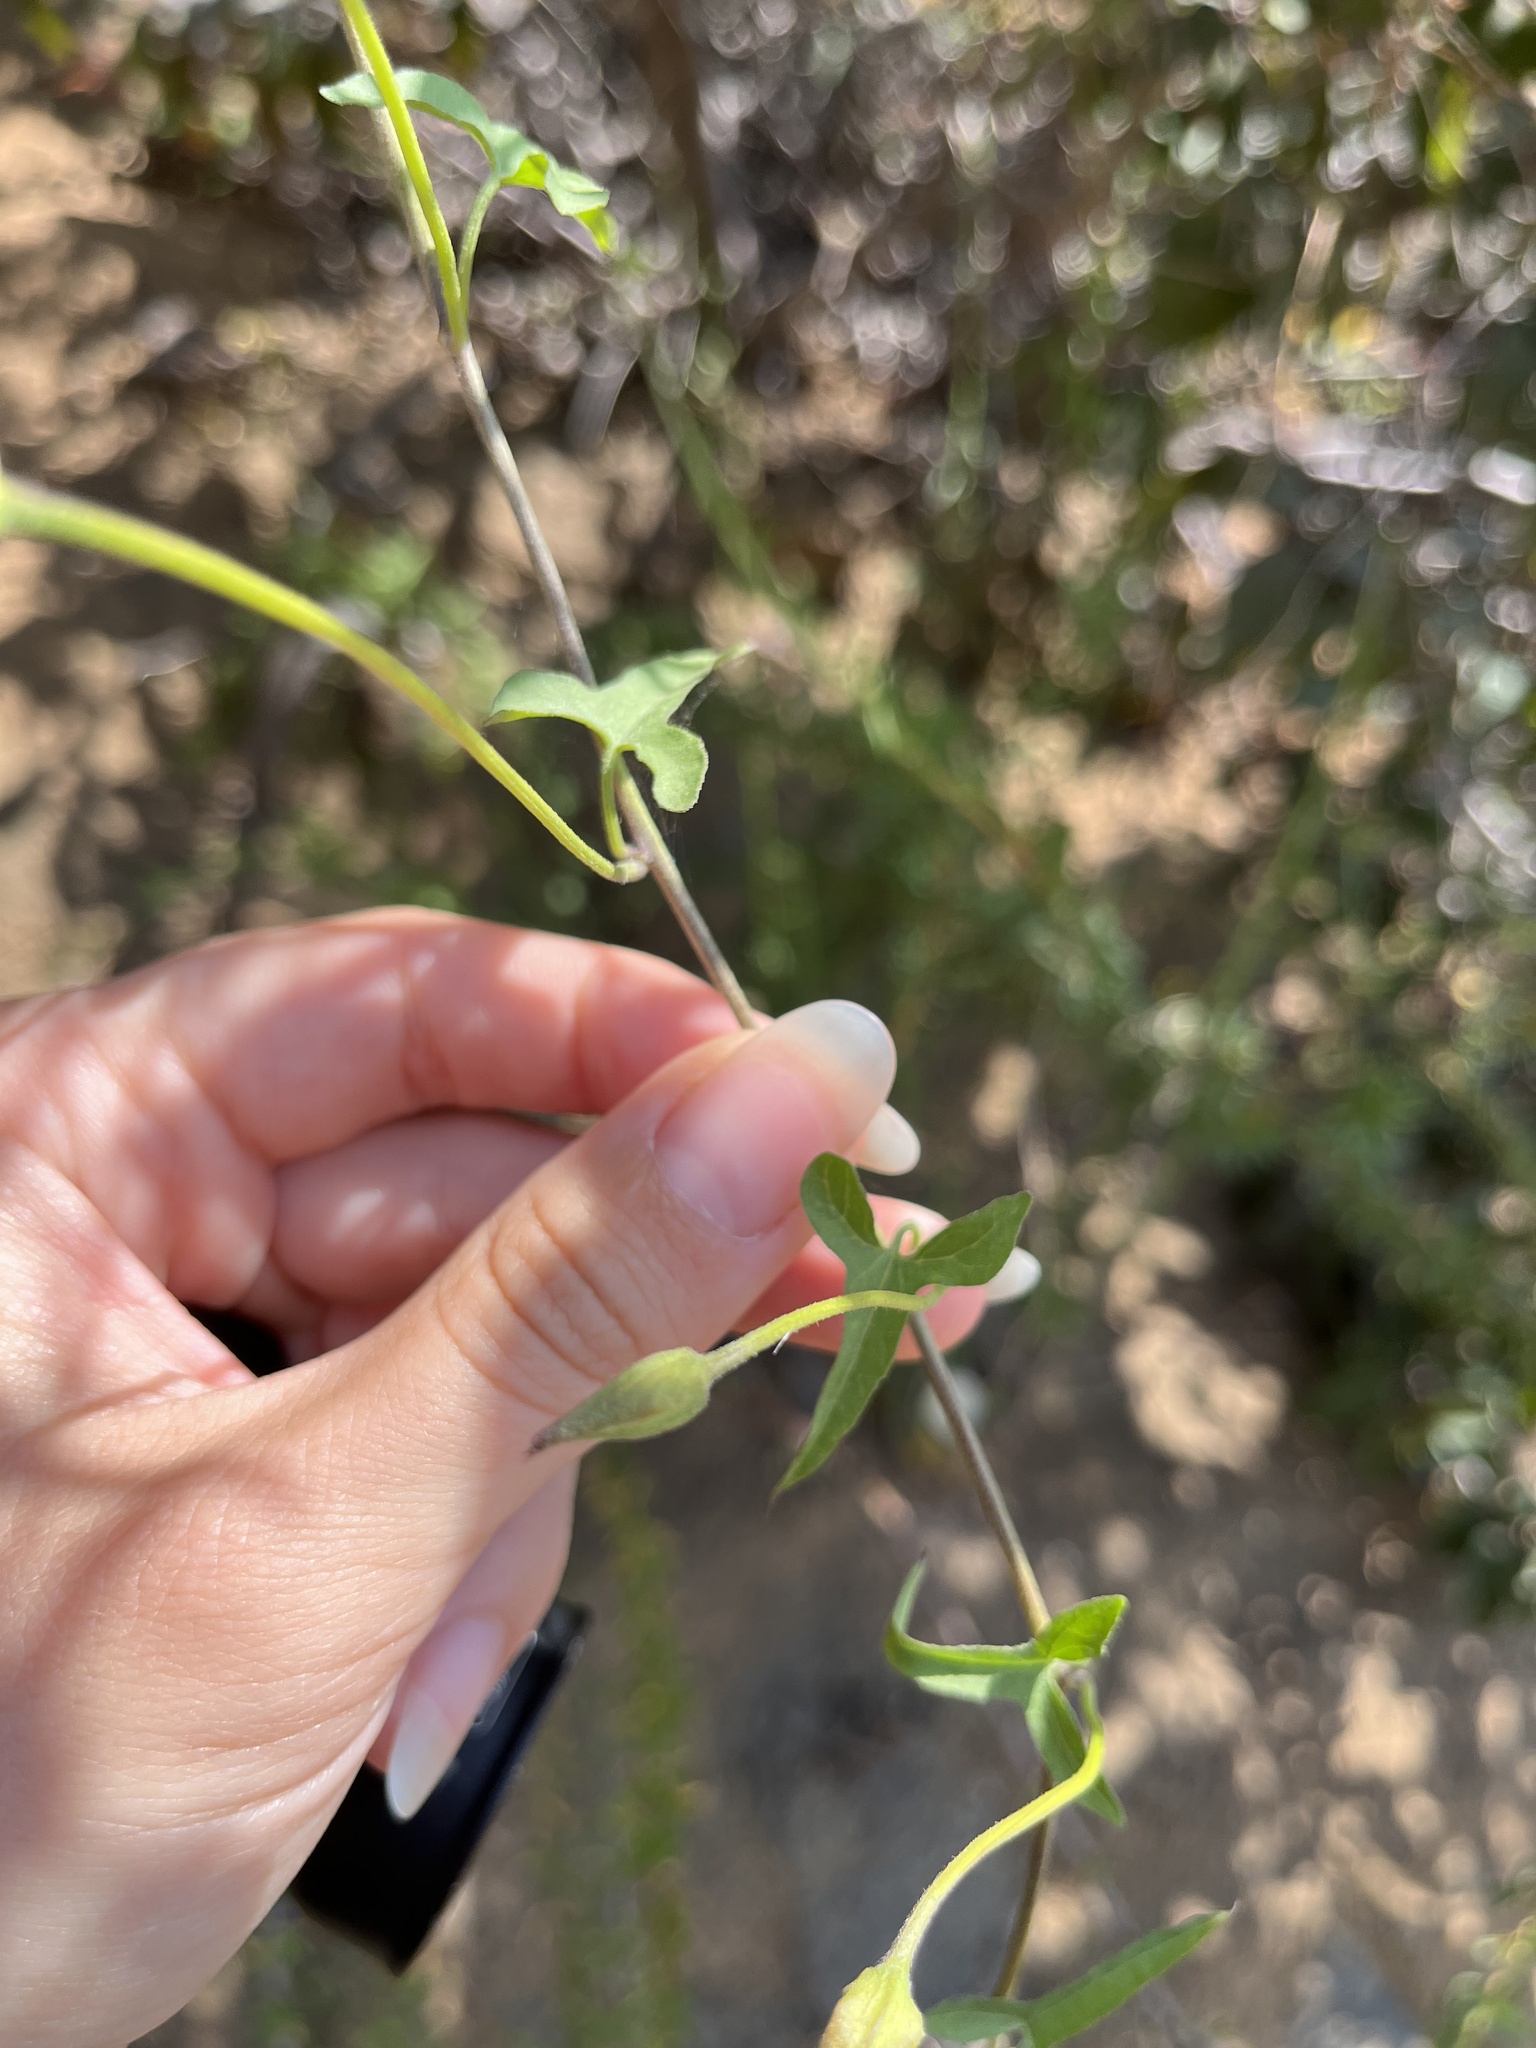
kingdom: Plantae
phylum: Tracheophyta
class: Magnoliopsida
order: Solanales
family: Convolvulaceae
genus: Calystegia
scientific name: Calystegia macrostegia
